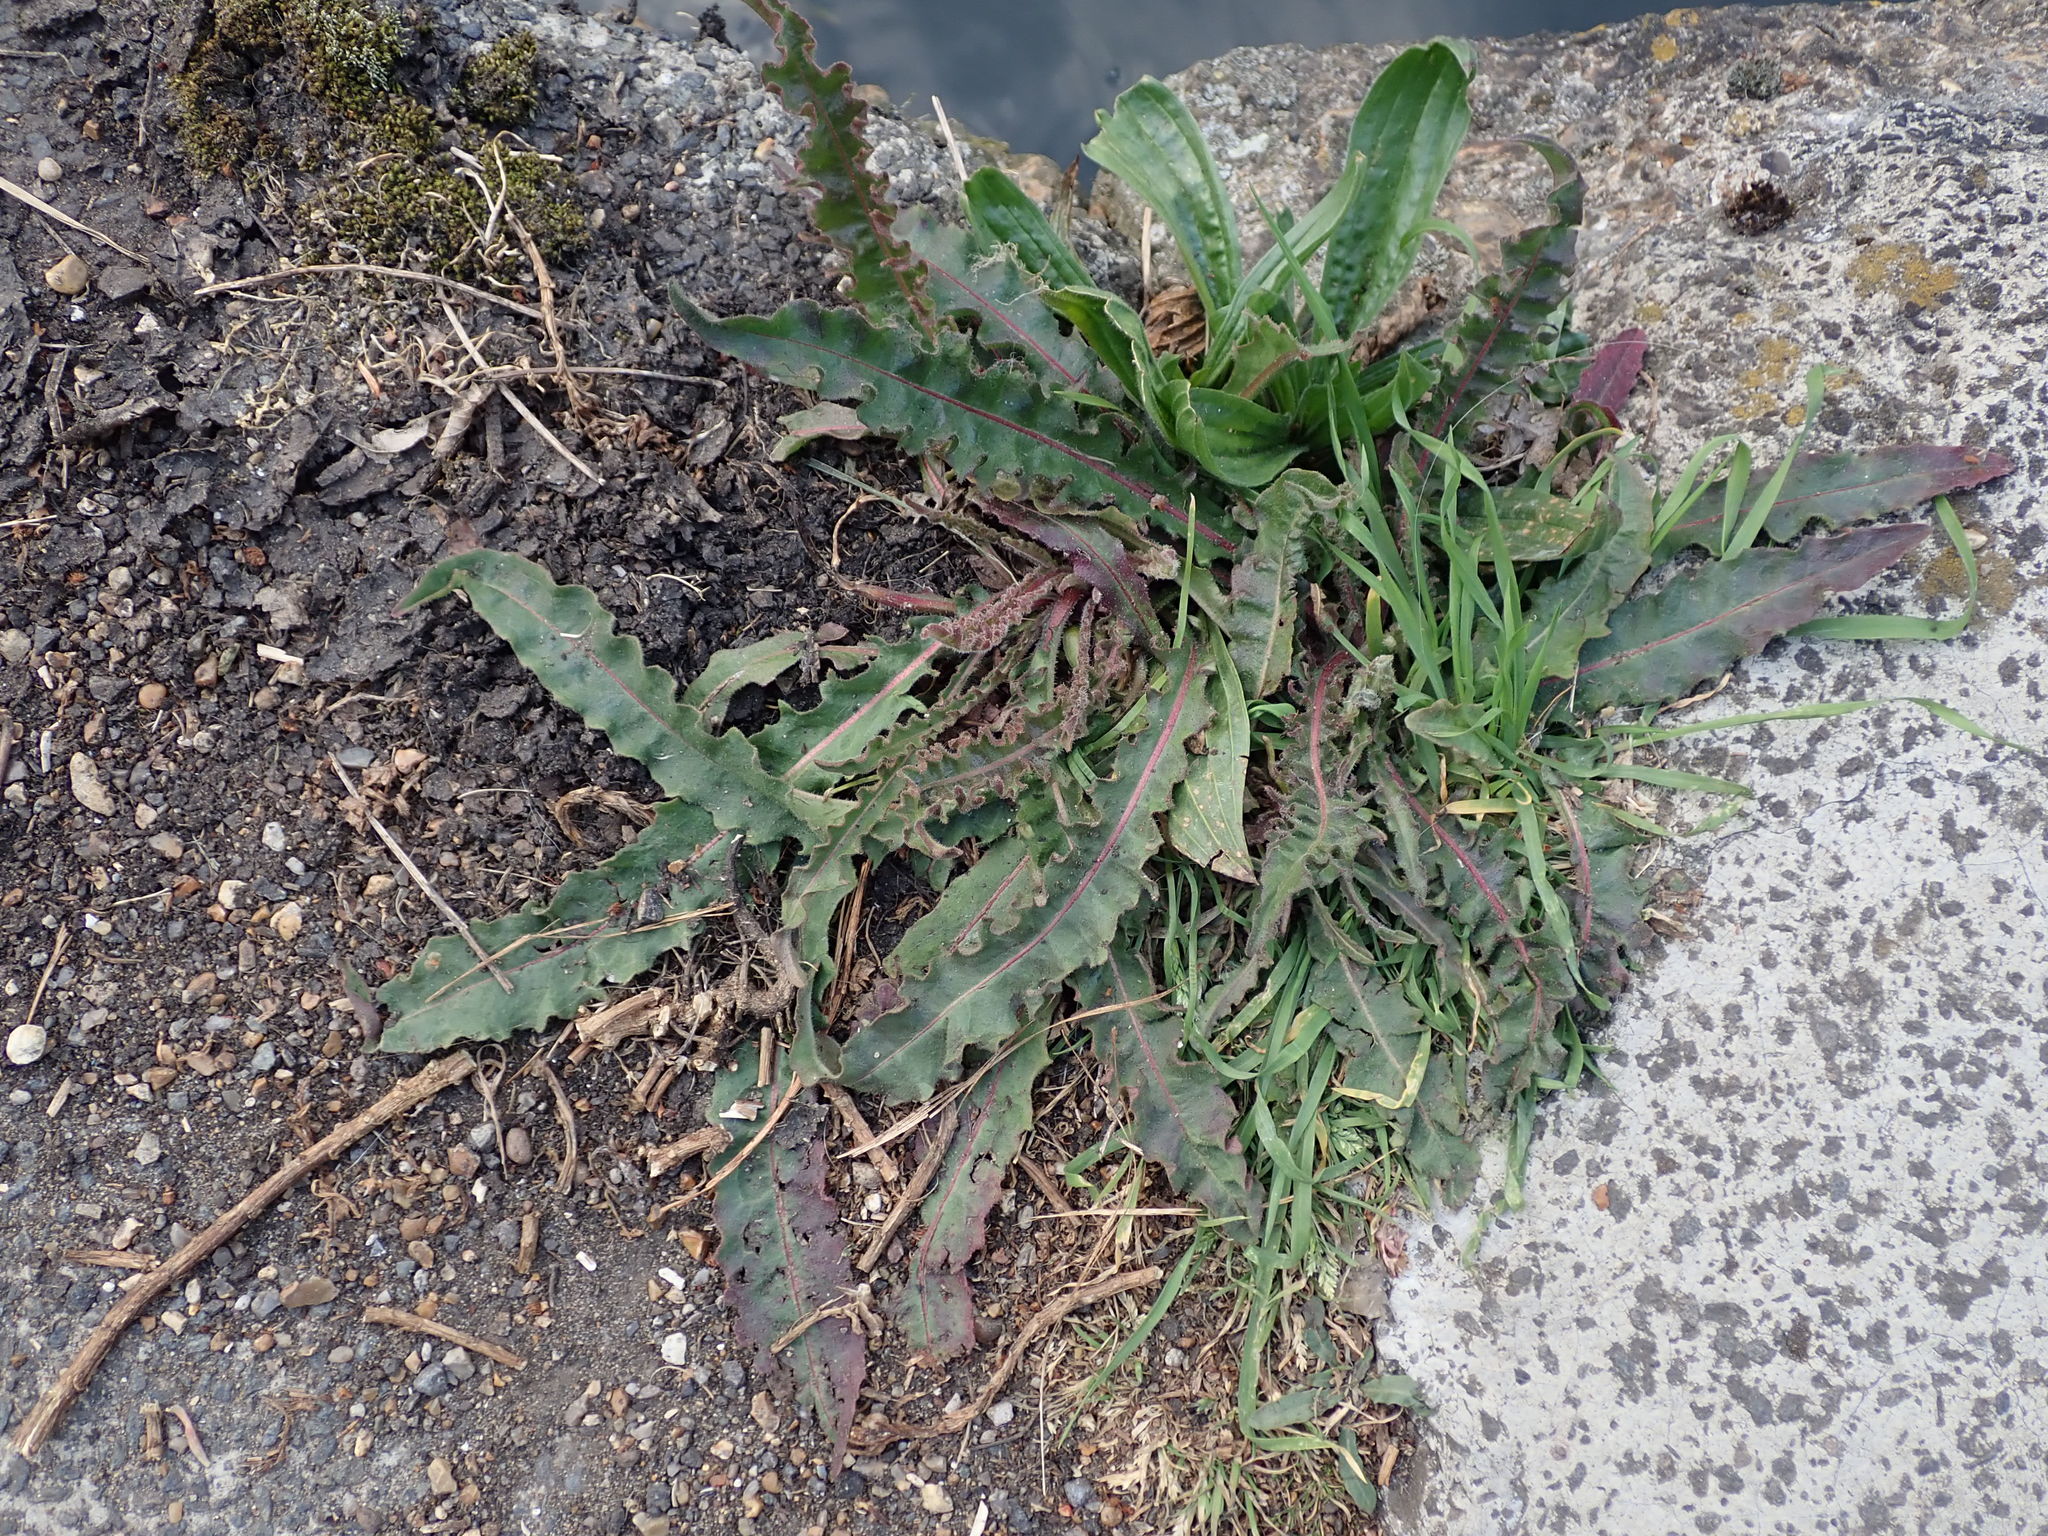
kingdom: Plantae
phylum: Tracheophyta
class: Magnoliopsida
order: Asterales
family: Asteraceae
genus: Picris
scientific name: Picris hieracioides
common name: Hawkweed oxtongue
